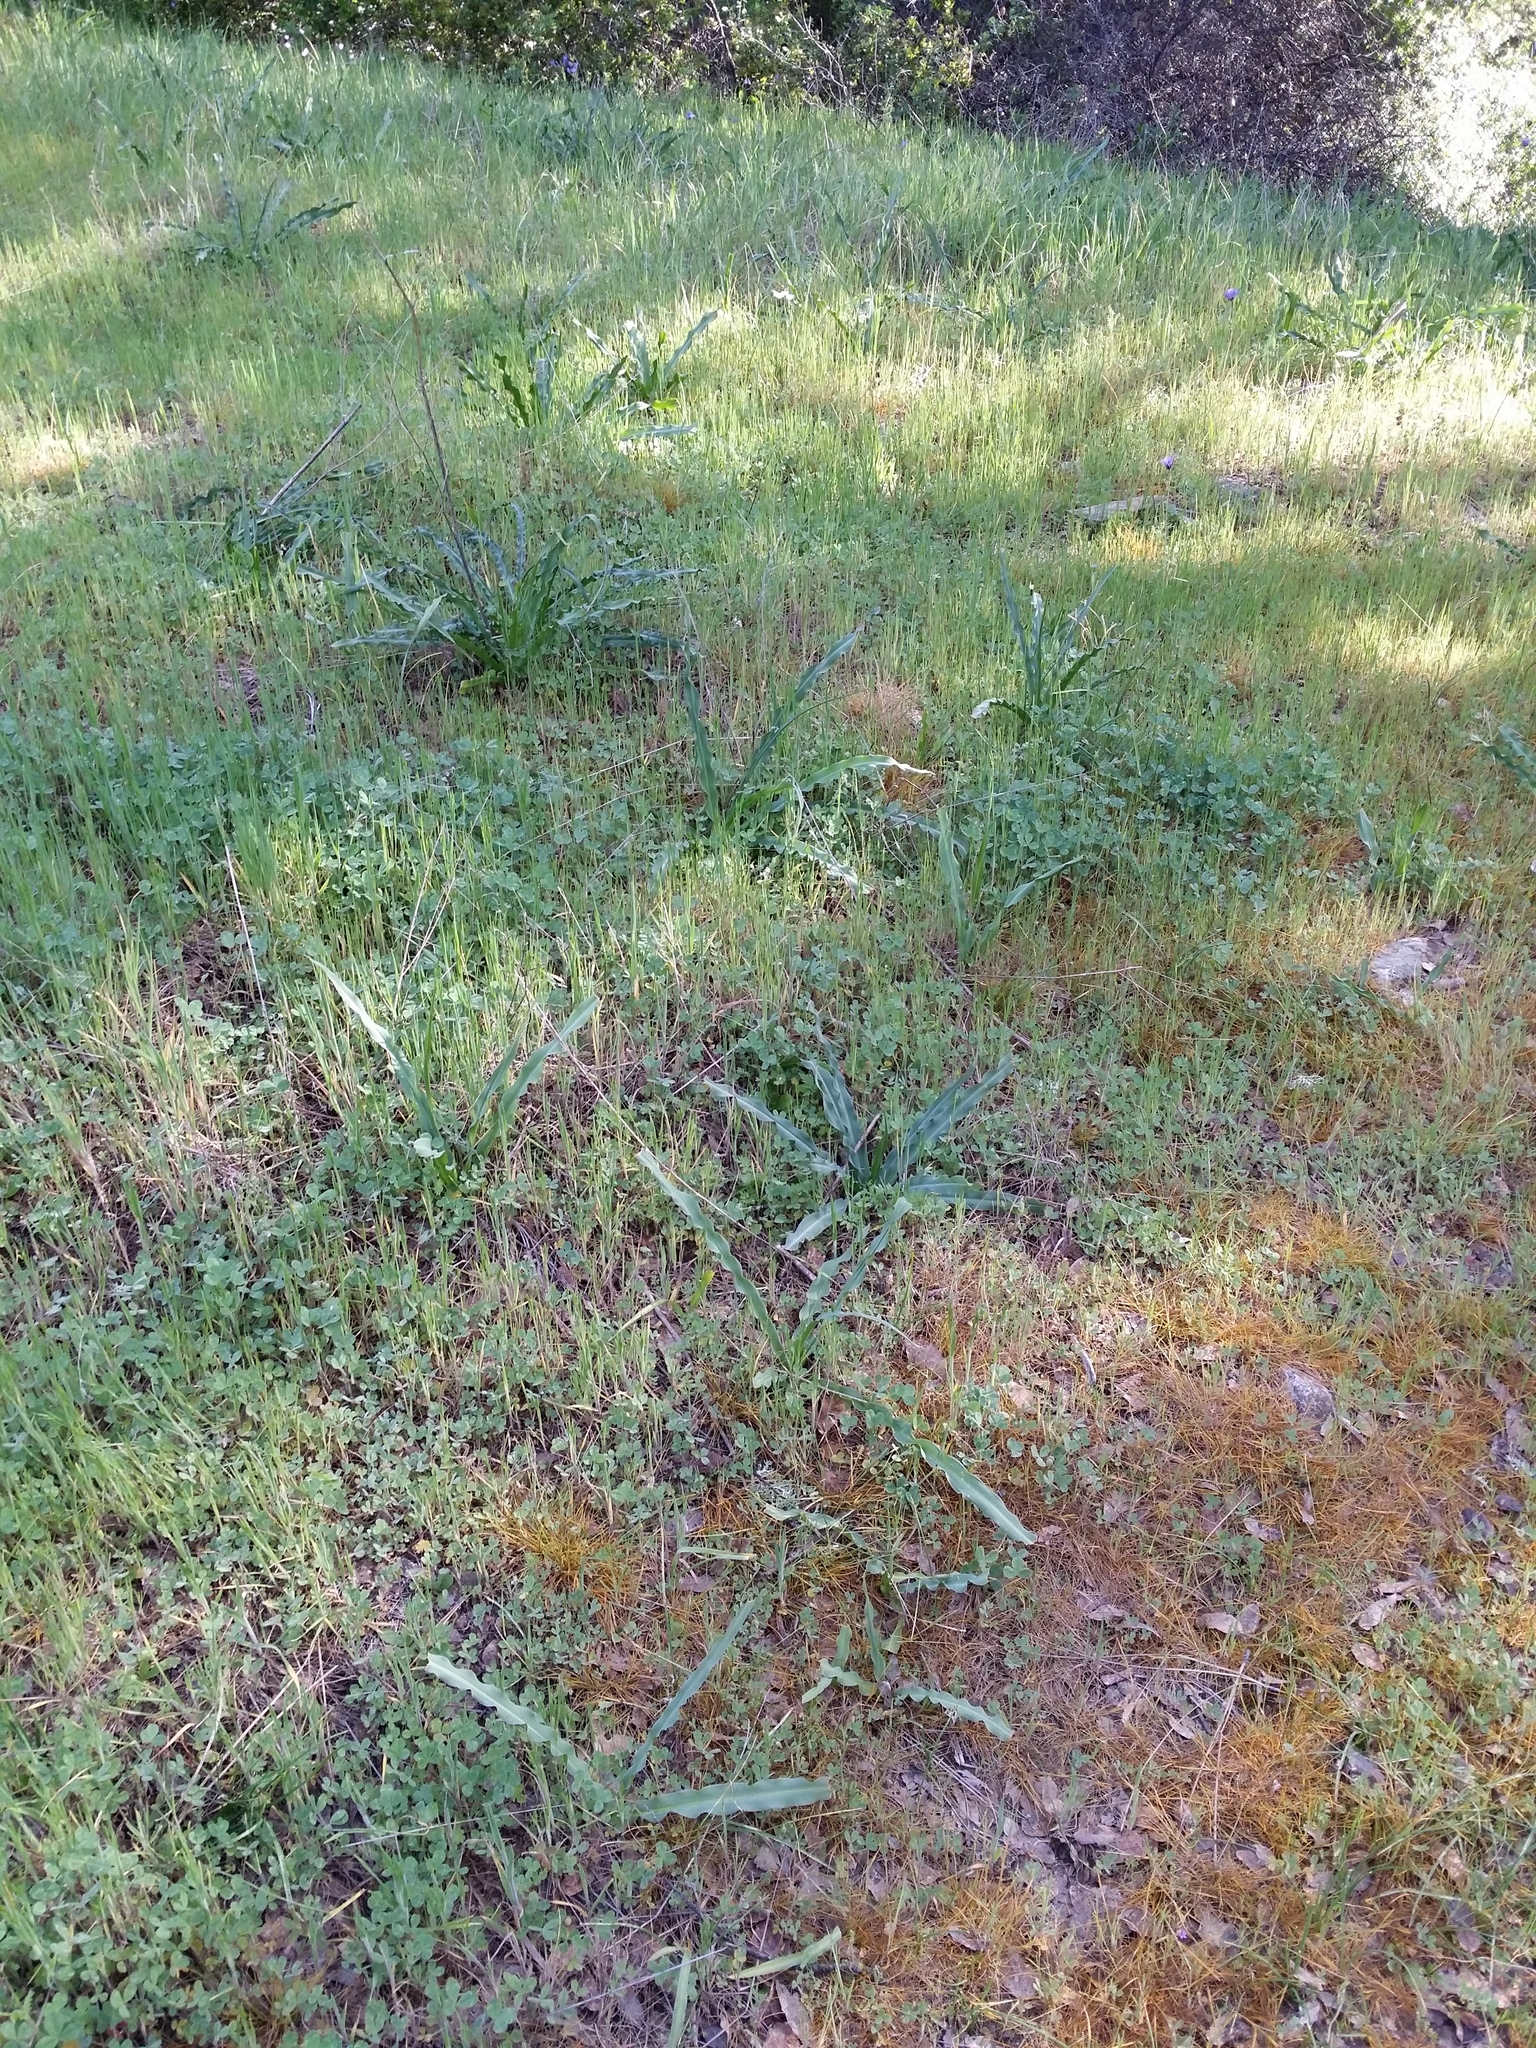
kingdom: Plantae
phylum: Tracheophyta
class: Liliopsida
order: Asparagales
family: Asparagaceae
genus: Chlorogalum
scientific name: Chlorogalum pomeridianum
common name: Amole
